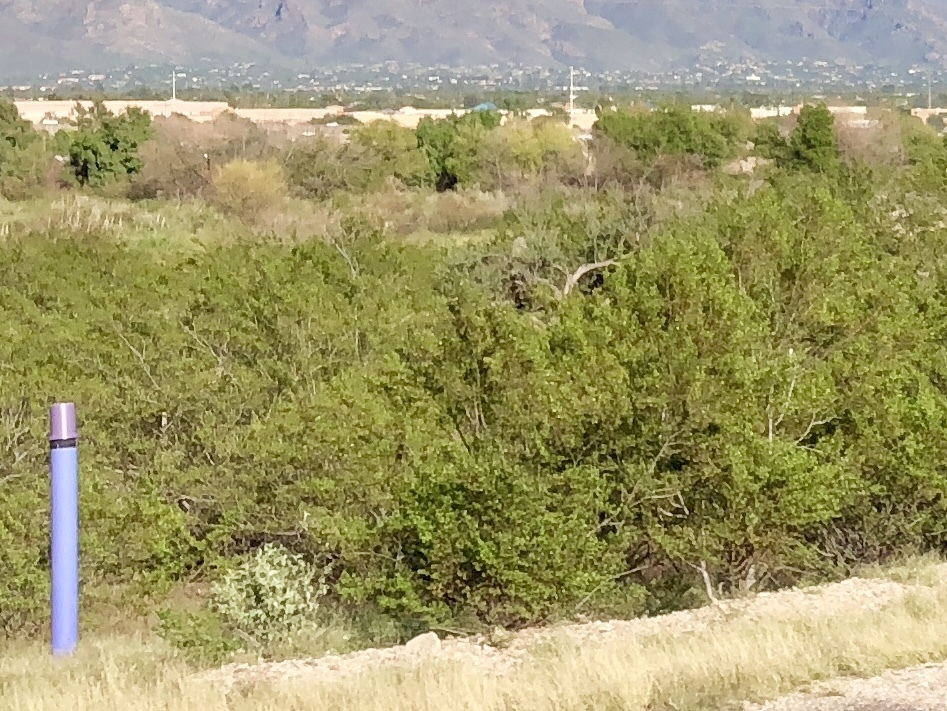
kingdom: Plantae
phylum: Tracheophyta
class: Magnoliopsida
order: Zygophyllales
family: Zygophyllaceae
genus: Larrea
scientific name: Larrea tridentata
